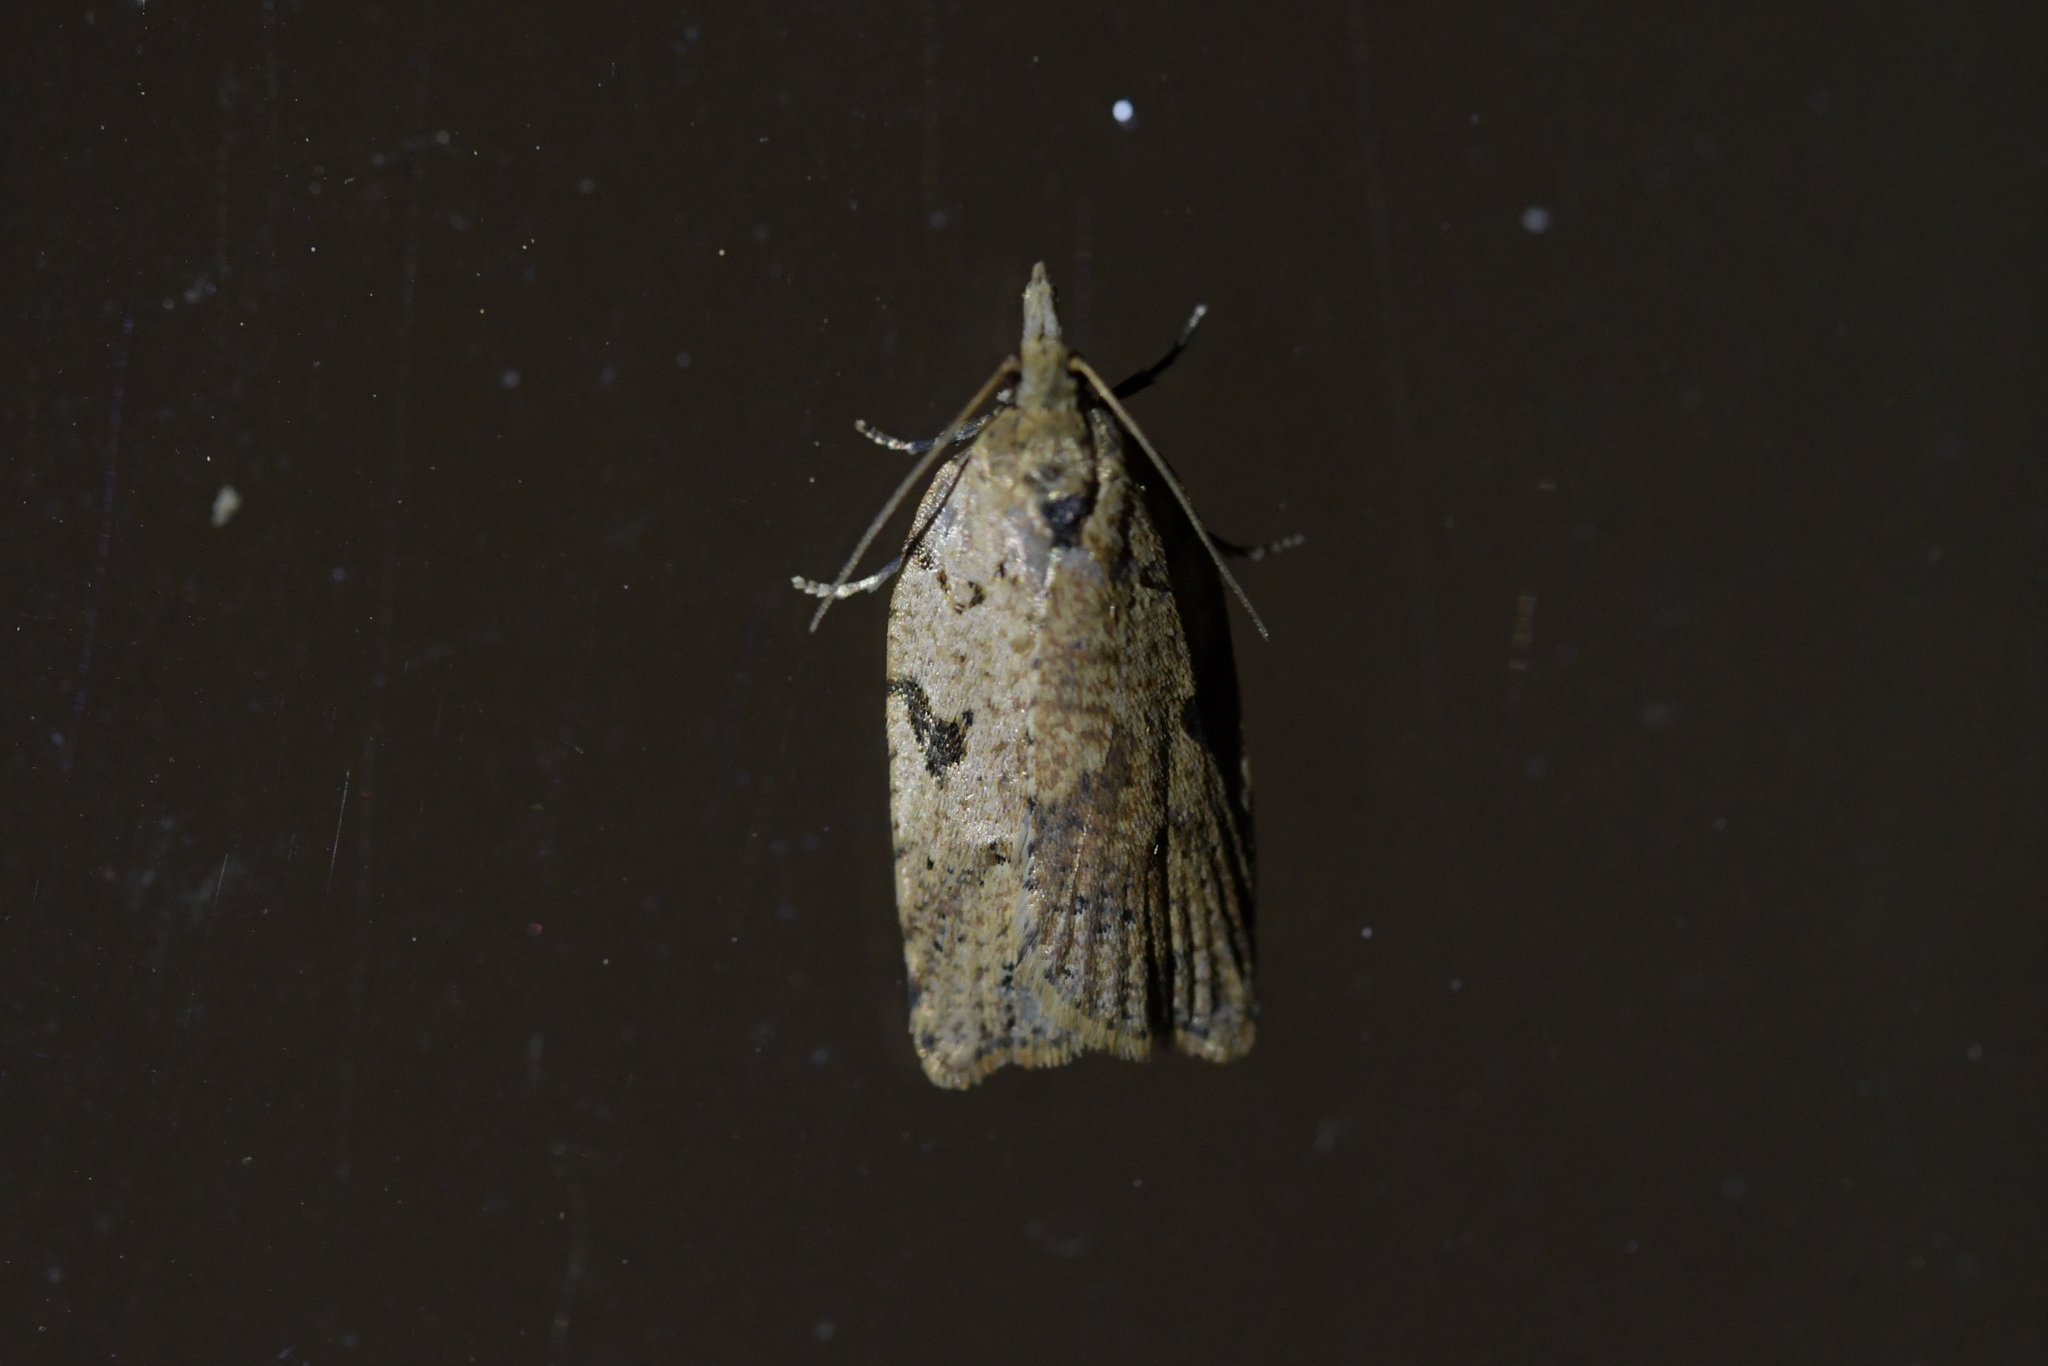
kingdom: Animalia
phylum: Arthropoda
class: Insecta
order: Lepidoptera
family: Tortricidae
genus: Ctenopseustis
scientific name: Ctenopseustis obliquana
